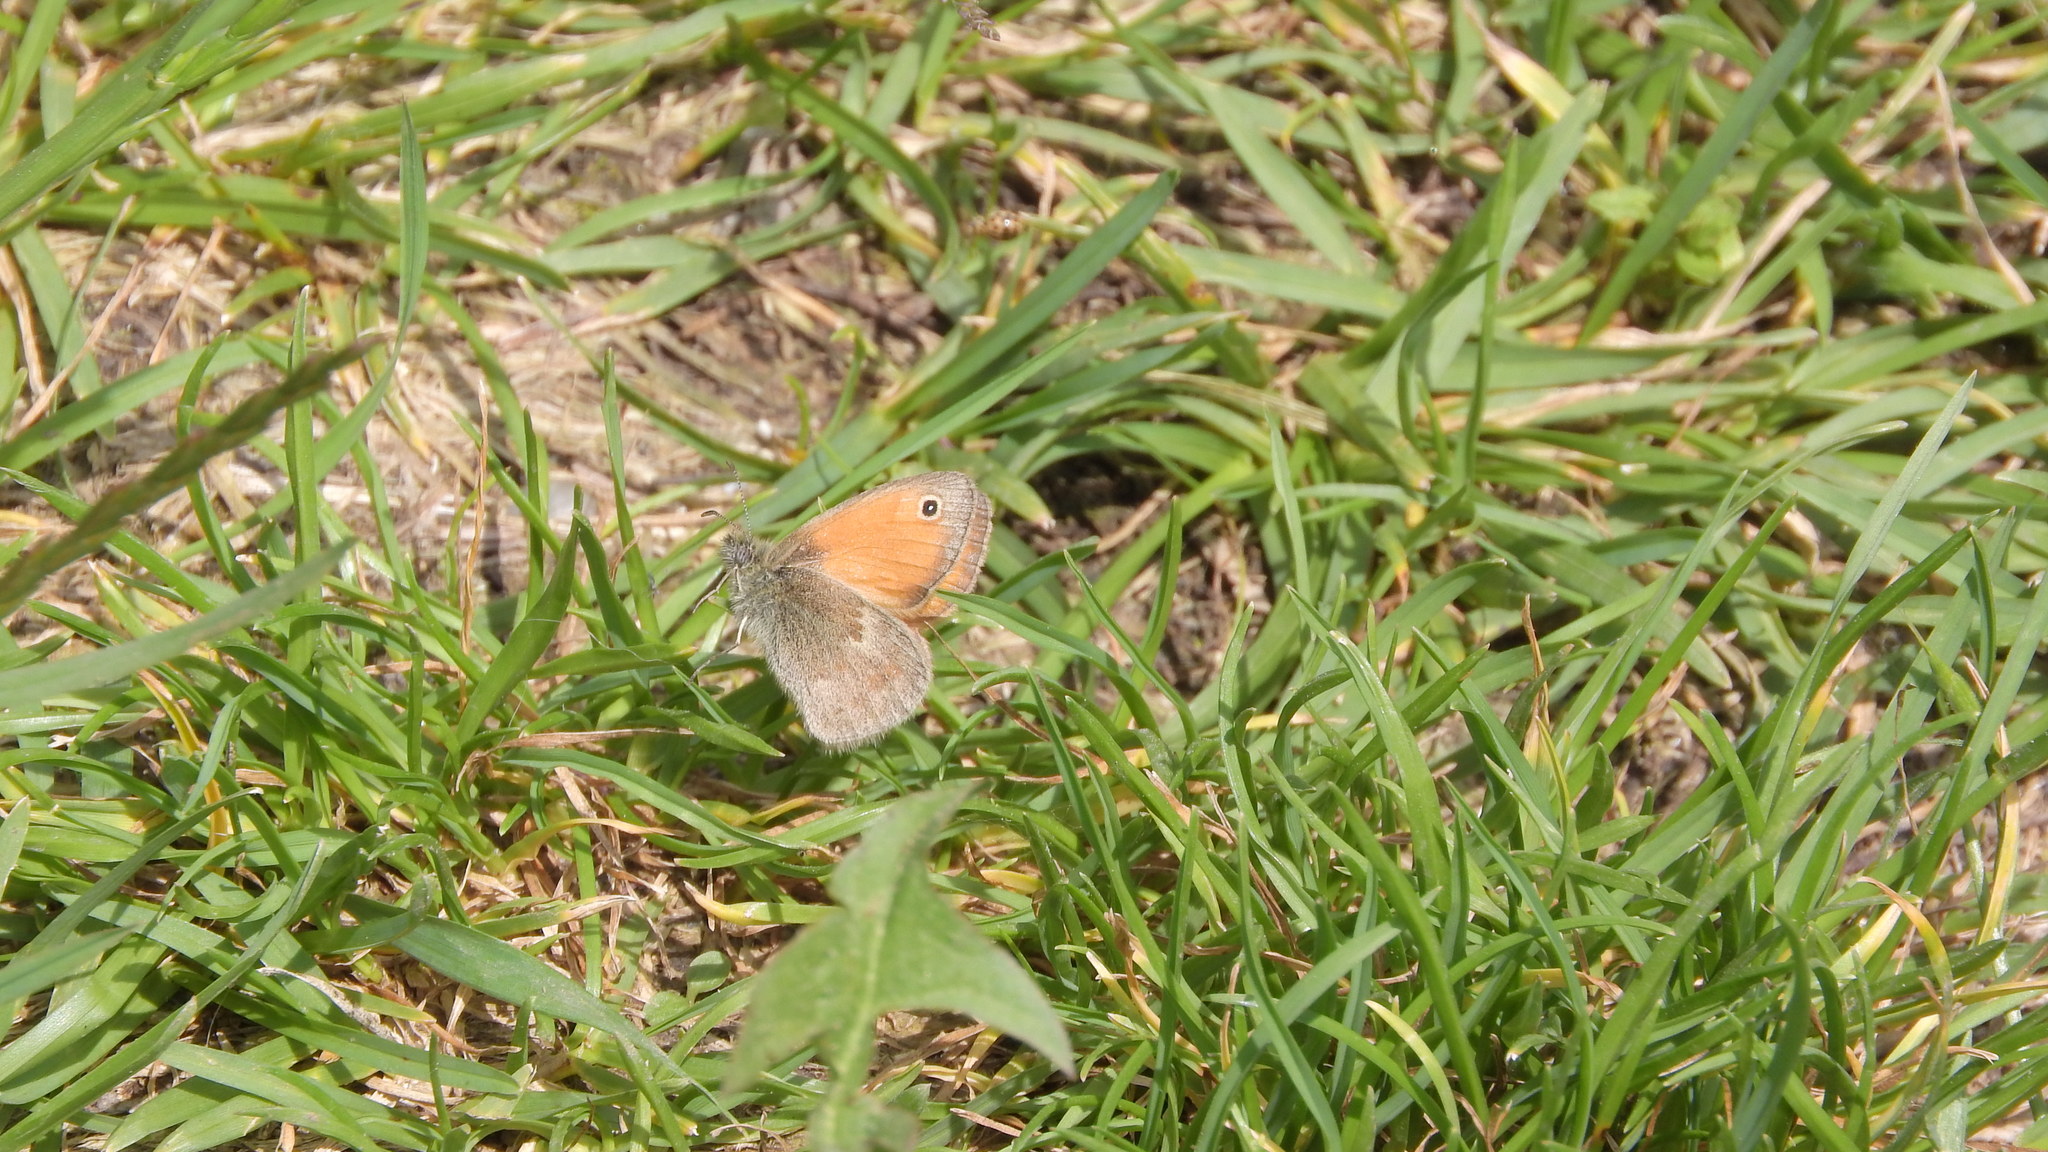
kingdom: Animalia
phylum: Arthropoda
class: Insecta
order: Lepidoptera
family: Nymphalidae
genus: Coenonympha
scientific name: Coenonympha pamphilus
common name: Small heath
